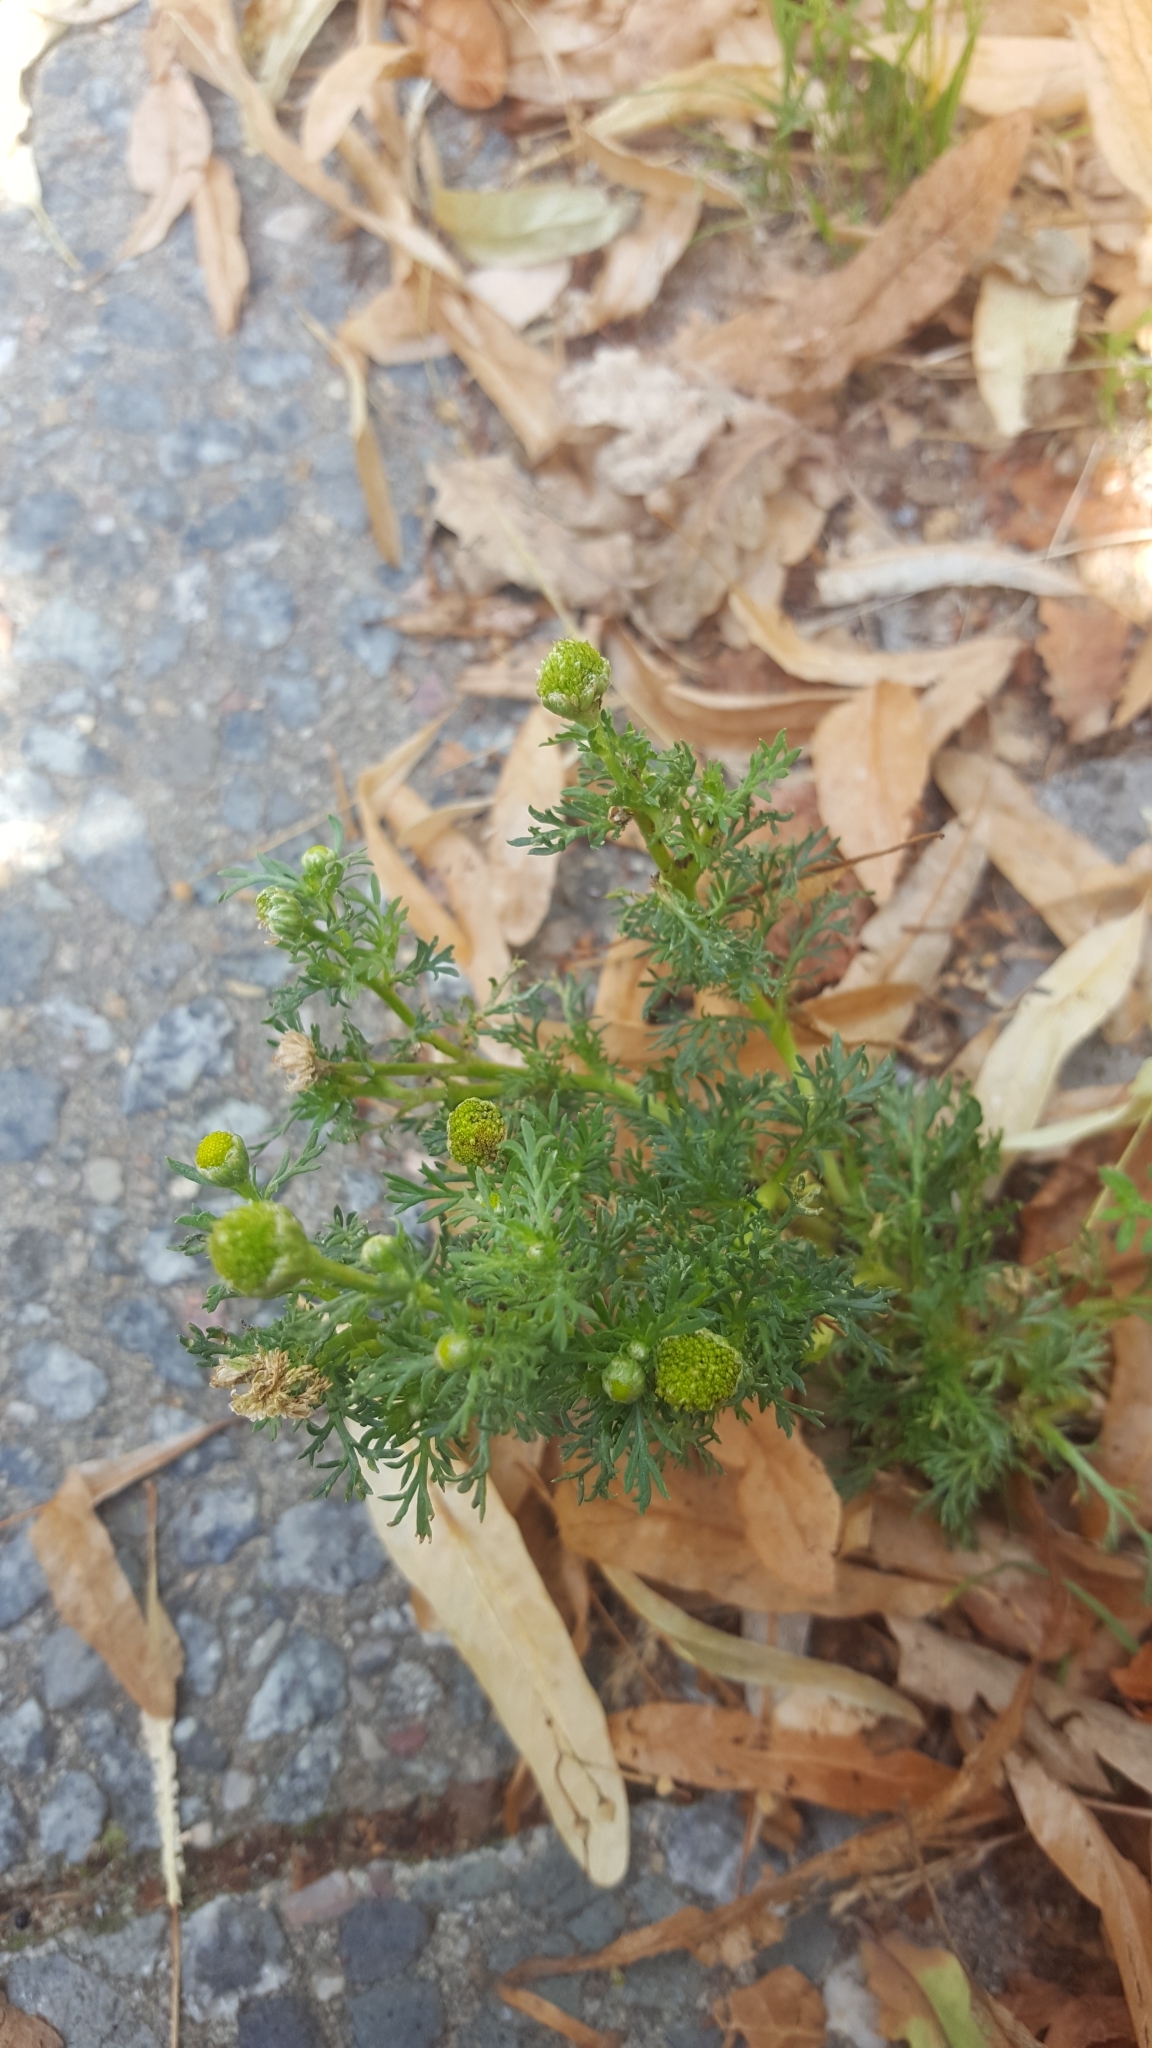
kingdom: Plantae
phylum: Tracheophyta
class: Magnoliopsida
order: Asterales
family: Asteraceae
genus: Matricaria
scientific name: Matricaria discoidea
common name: Disc mayweed
